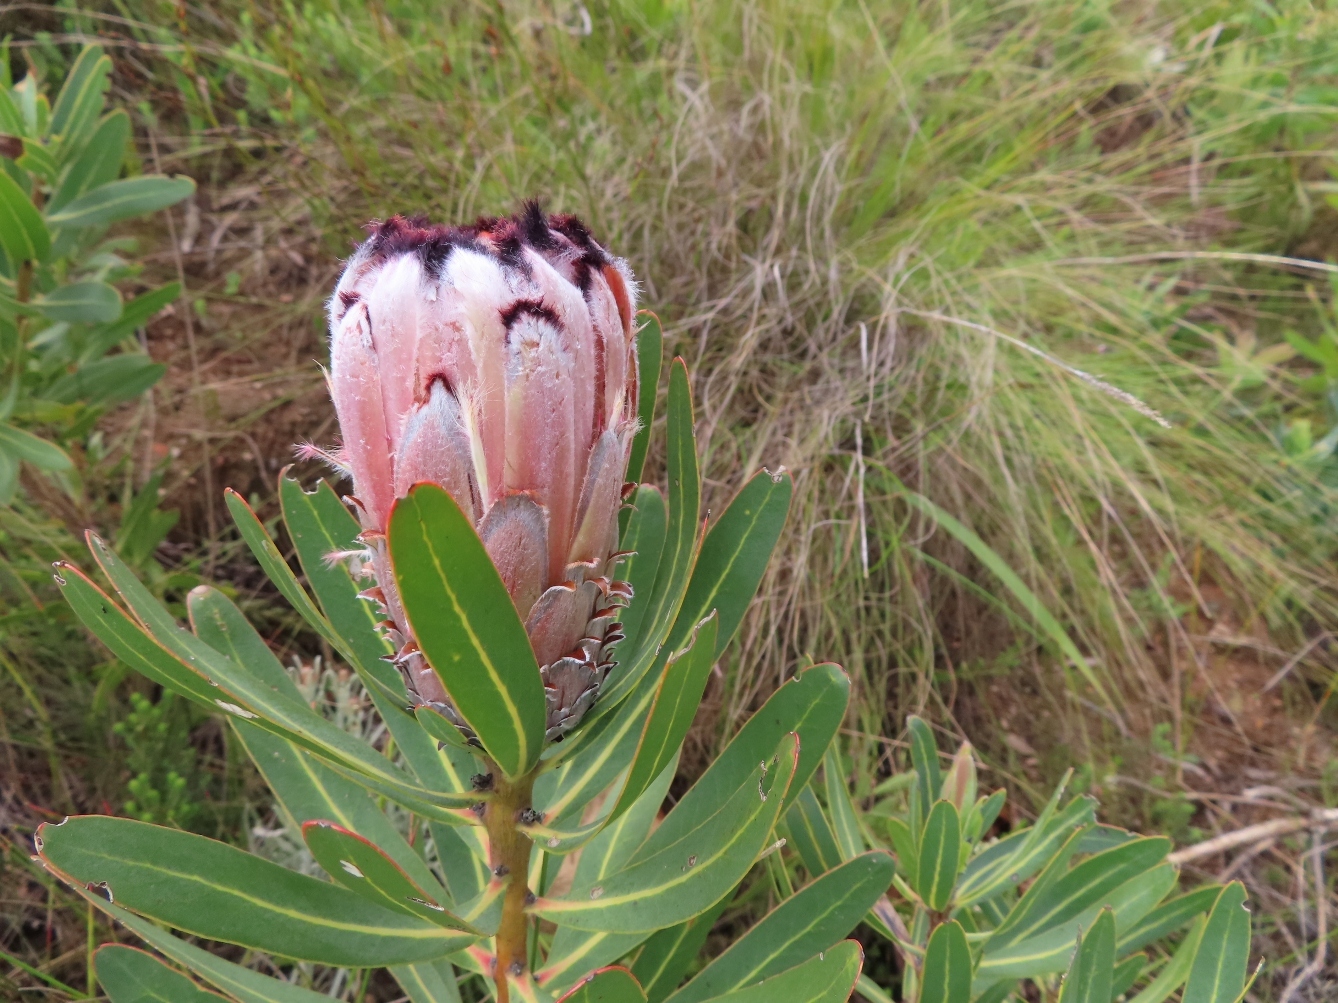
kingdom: Plantae
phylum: Tracheophyta
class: Magnoliopsida
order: Proteales
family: Proteaceae
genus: Protea
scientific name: Protea neriifolia
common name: Blue sugarbush
